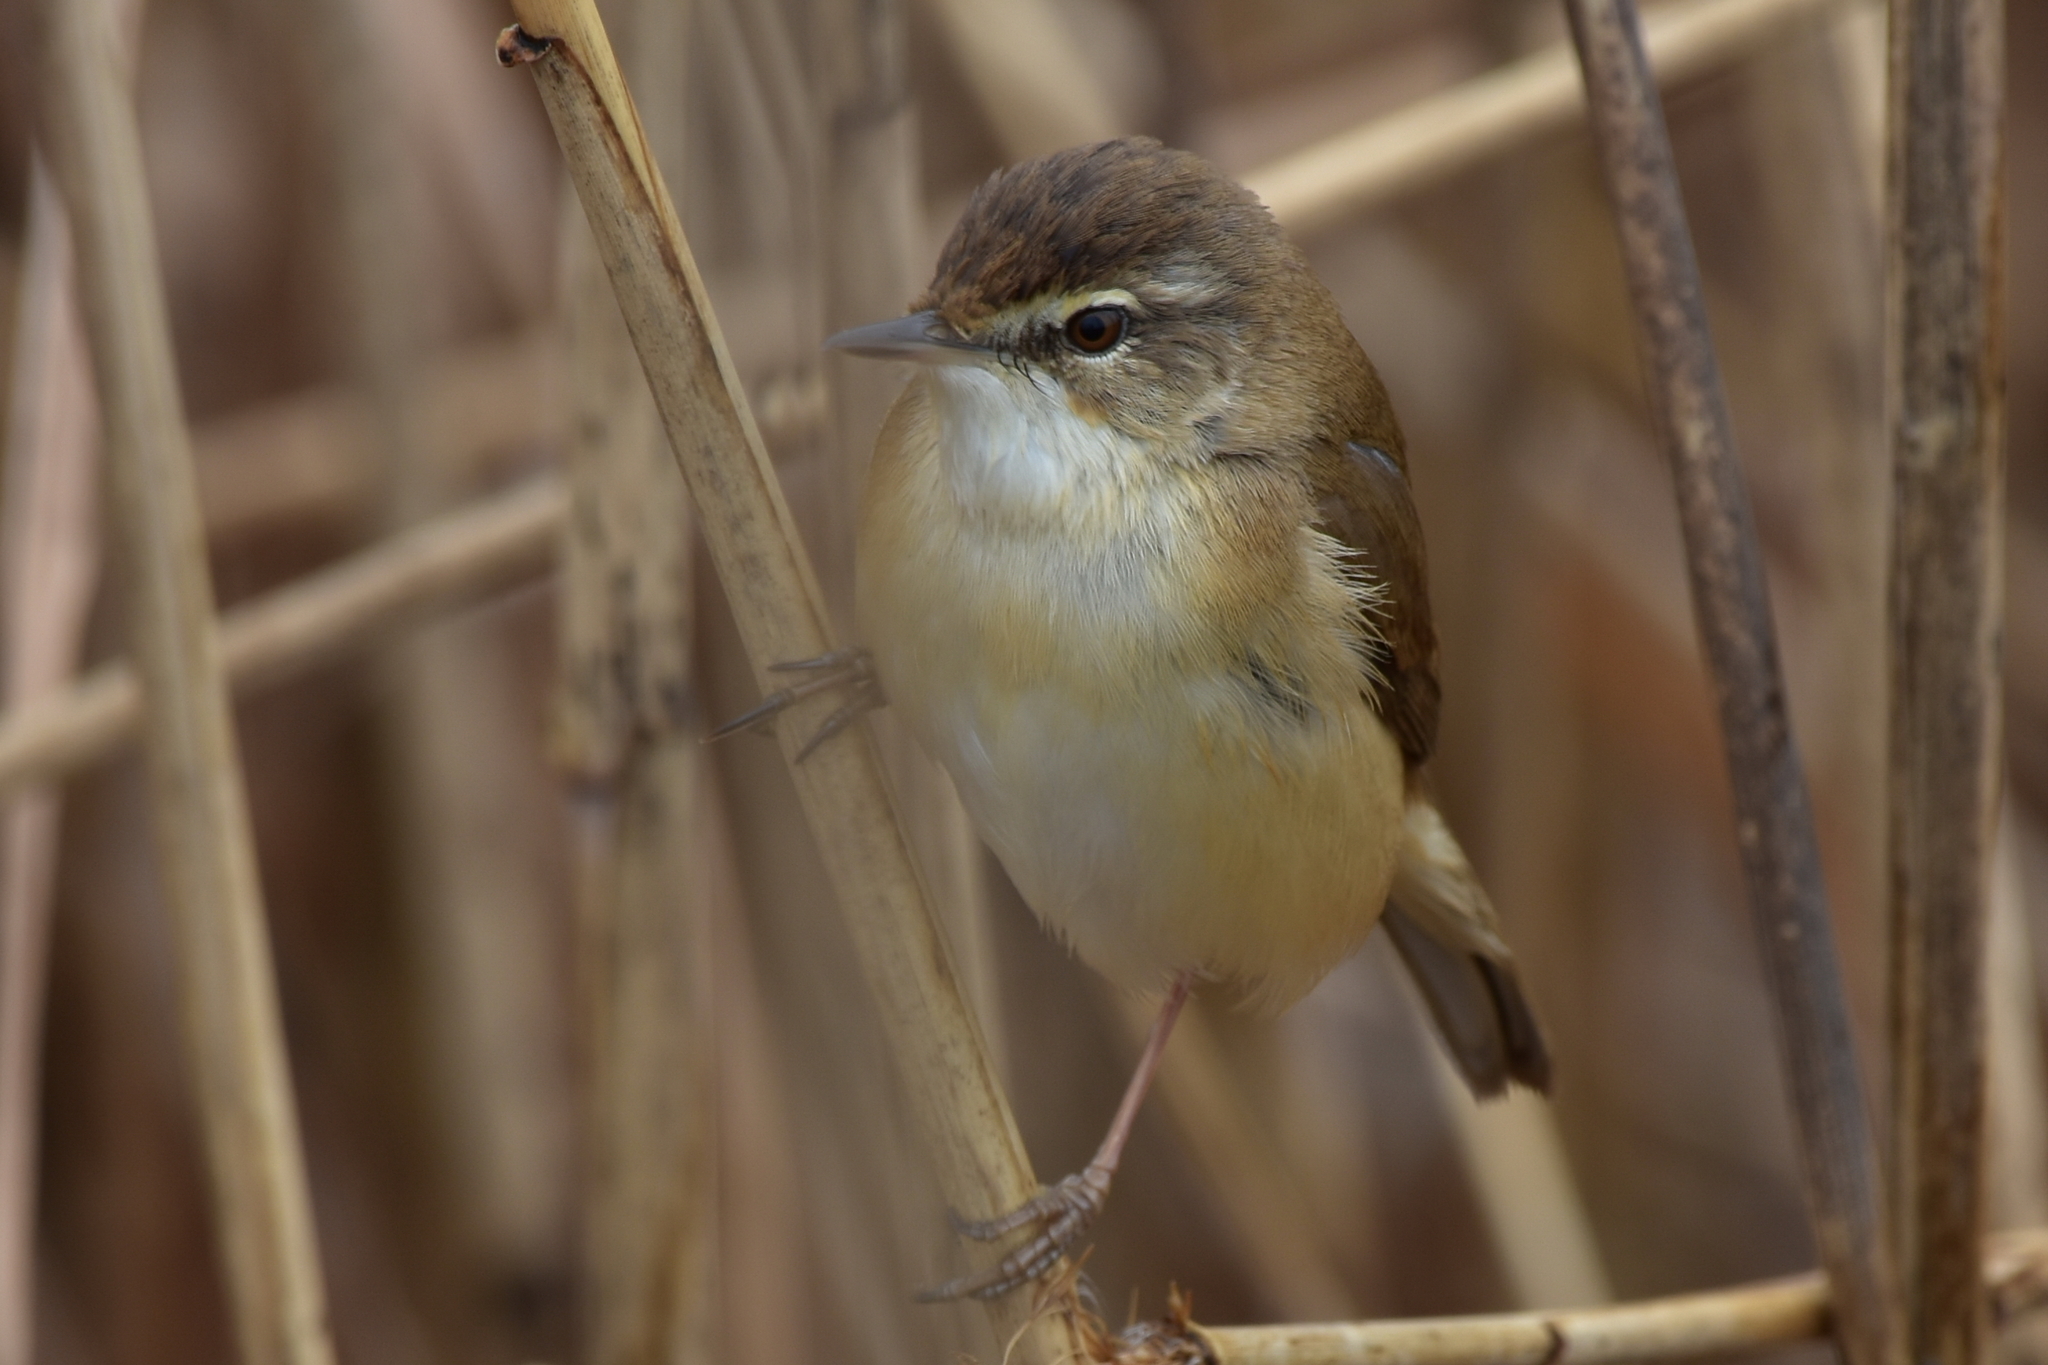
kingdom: Animalia
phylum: Chordata
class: Aves
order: Passeriformes
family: Acrocephalidae
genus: Acrocephalus
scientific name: Acrocephalus agricola
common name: Paddyfield warbler
